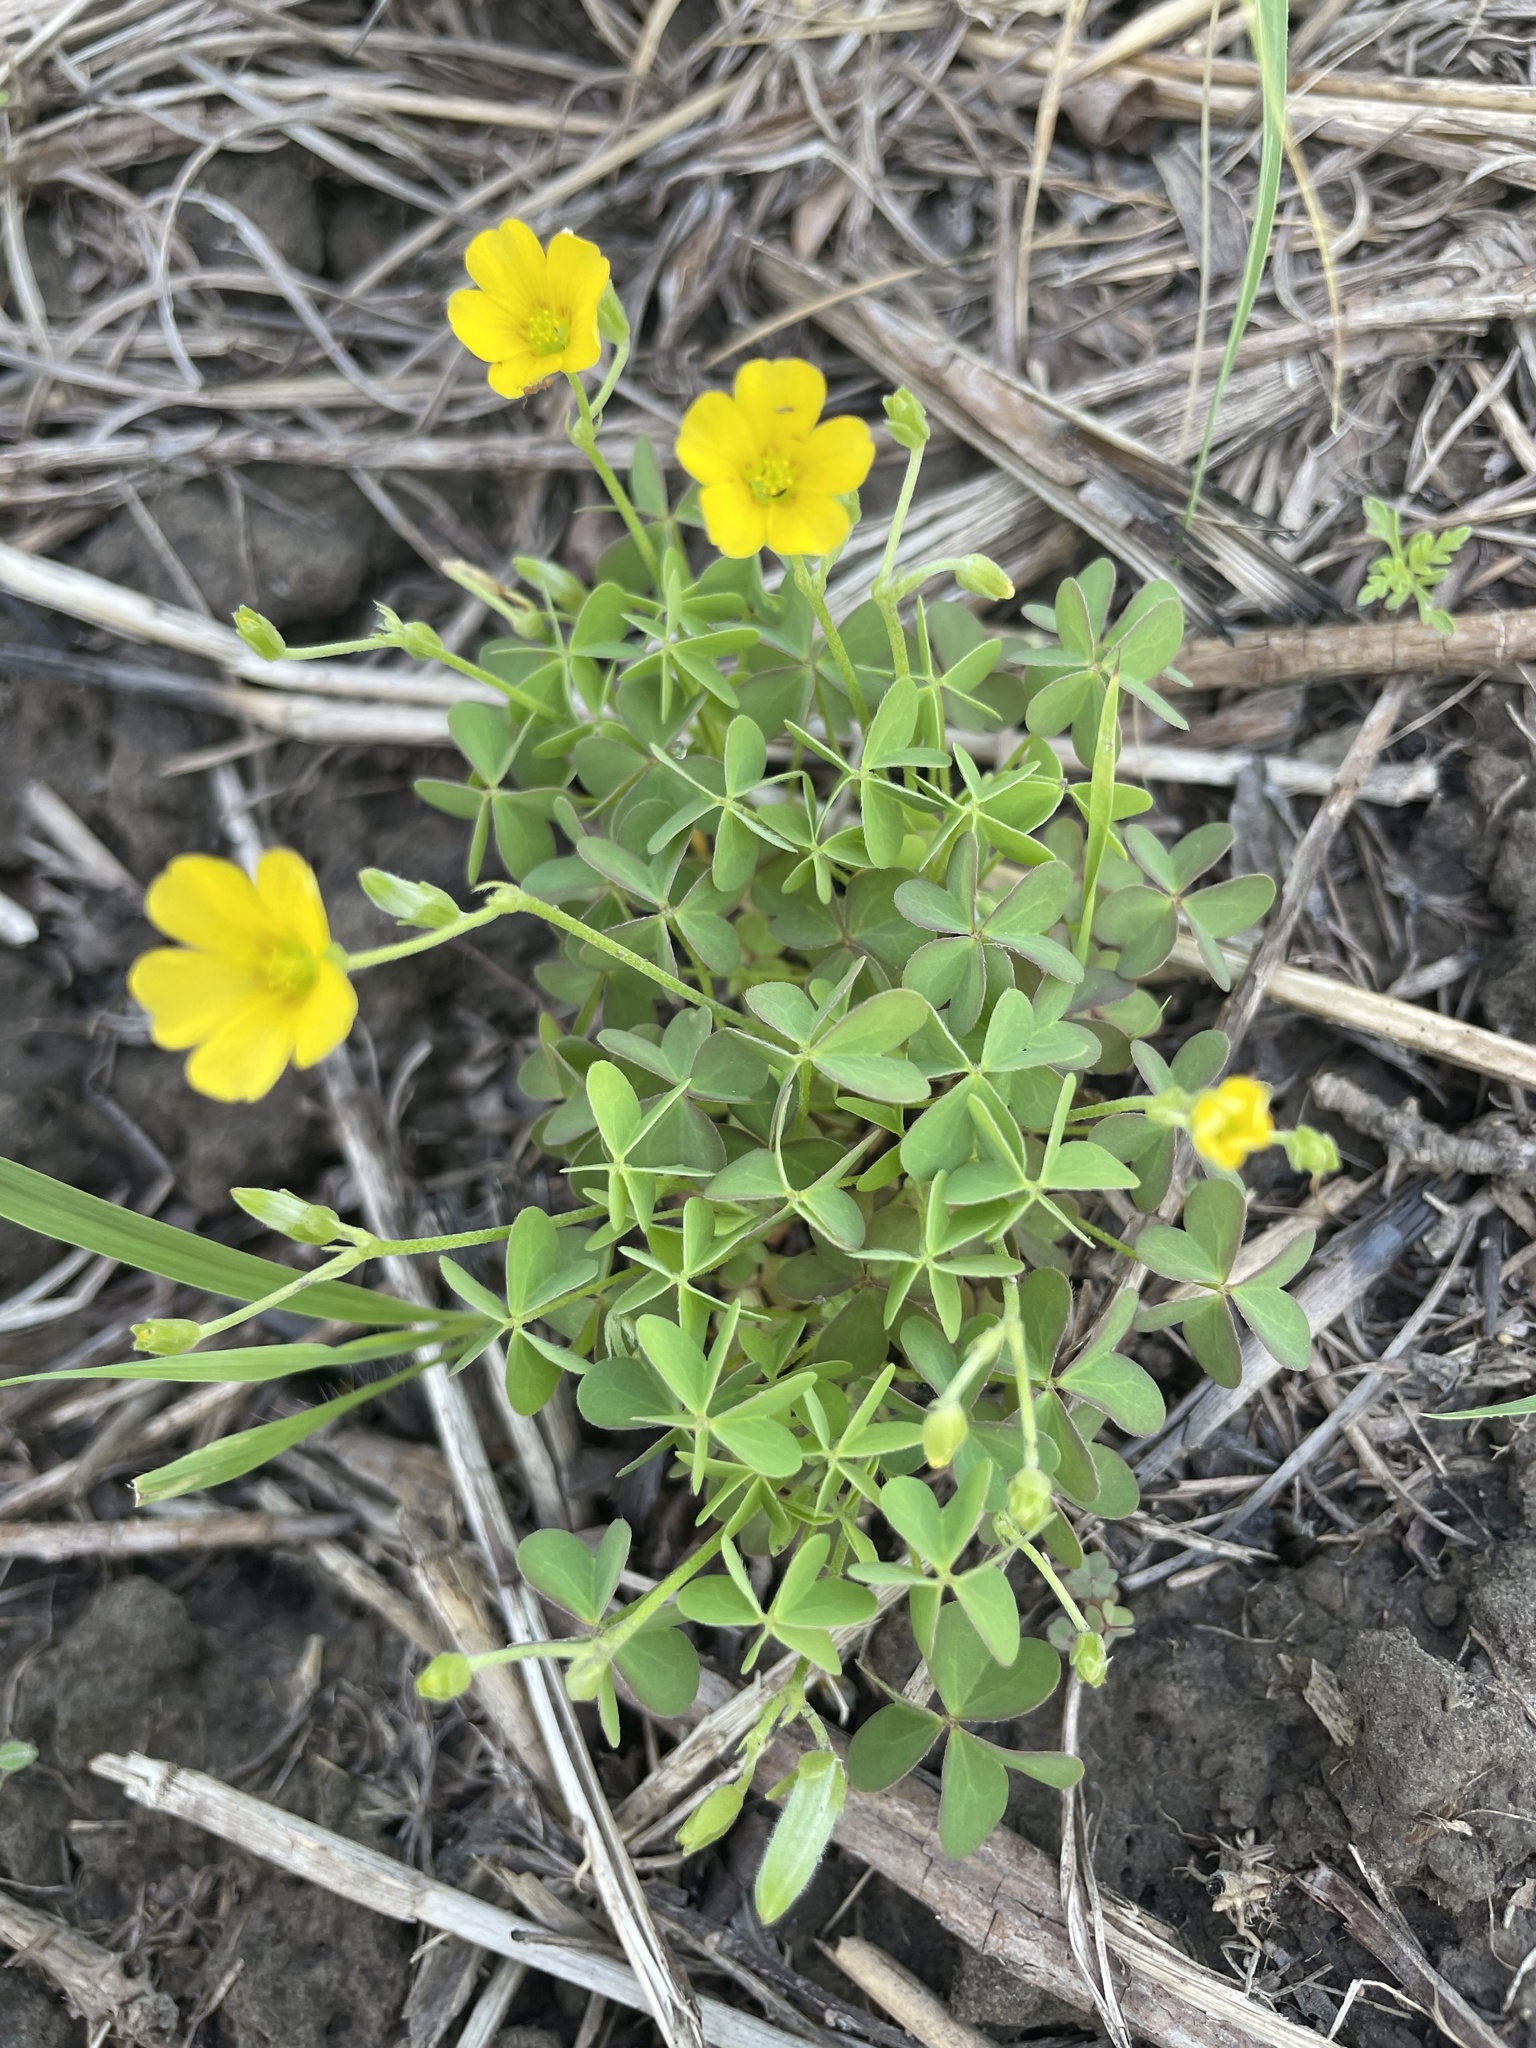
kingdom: Plantae
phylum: Tracheophyta
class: Magnoliopsida
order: Oxalidales
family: Oxalidaceae
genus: Oxalis
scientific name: Oxalis dillenii
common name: Sussex yellow-sorrel
